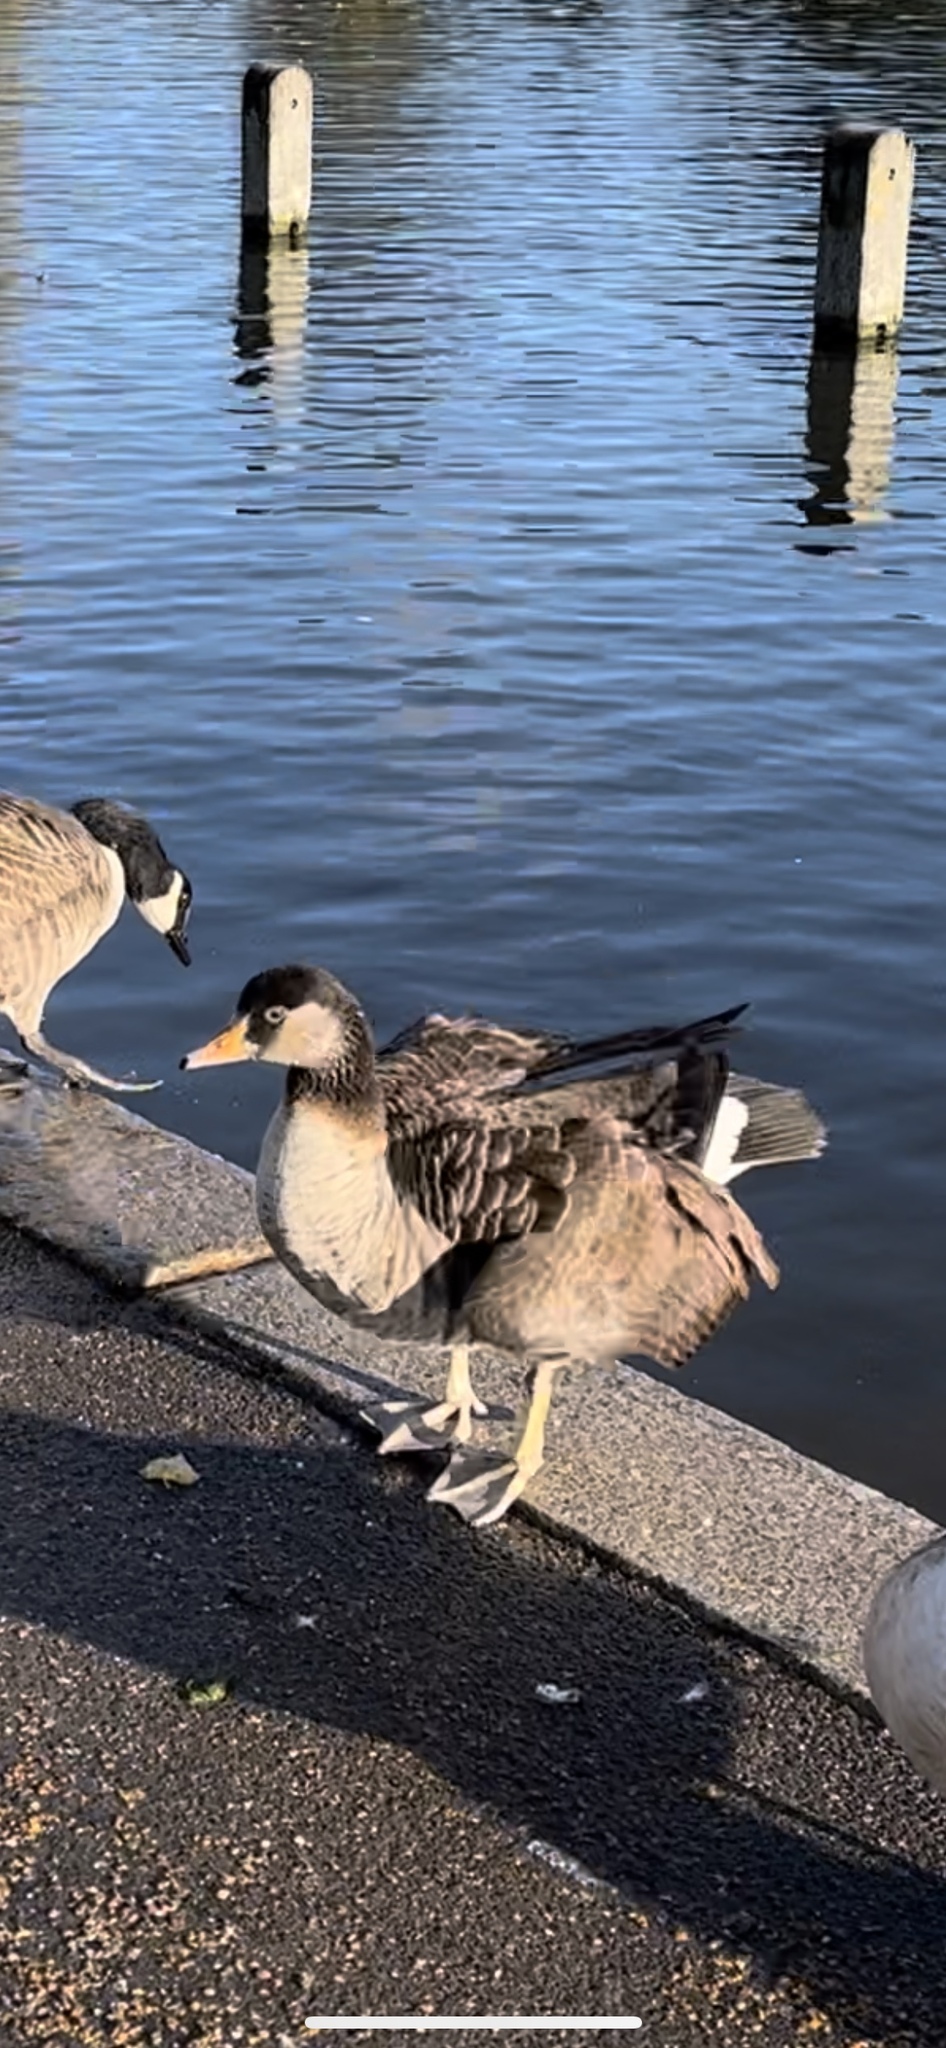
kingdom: Animalia
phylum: Chordata
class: Aves
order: Anseriformes
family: Anatidae
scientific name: Anatidae
